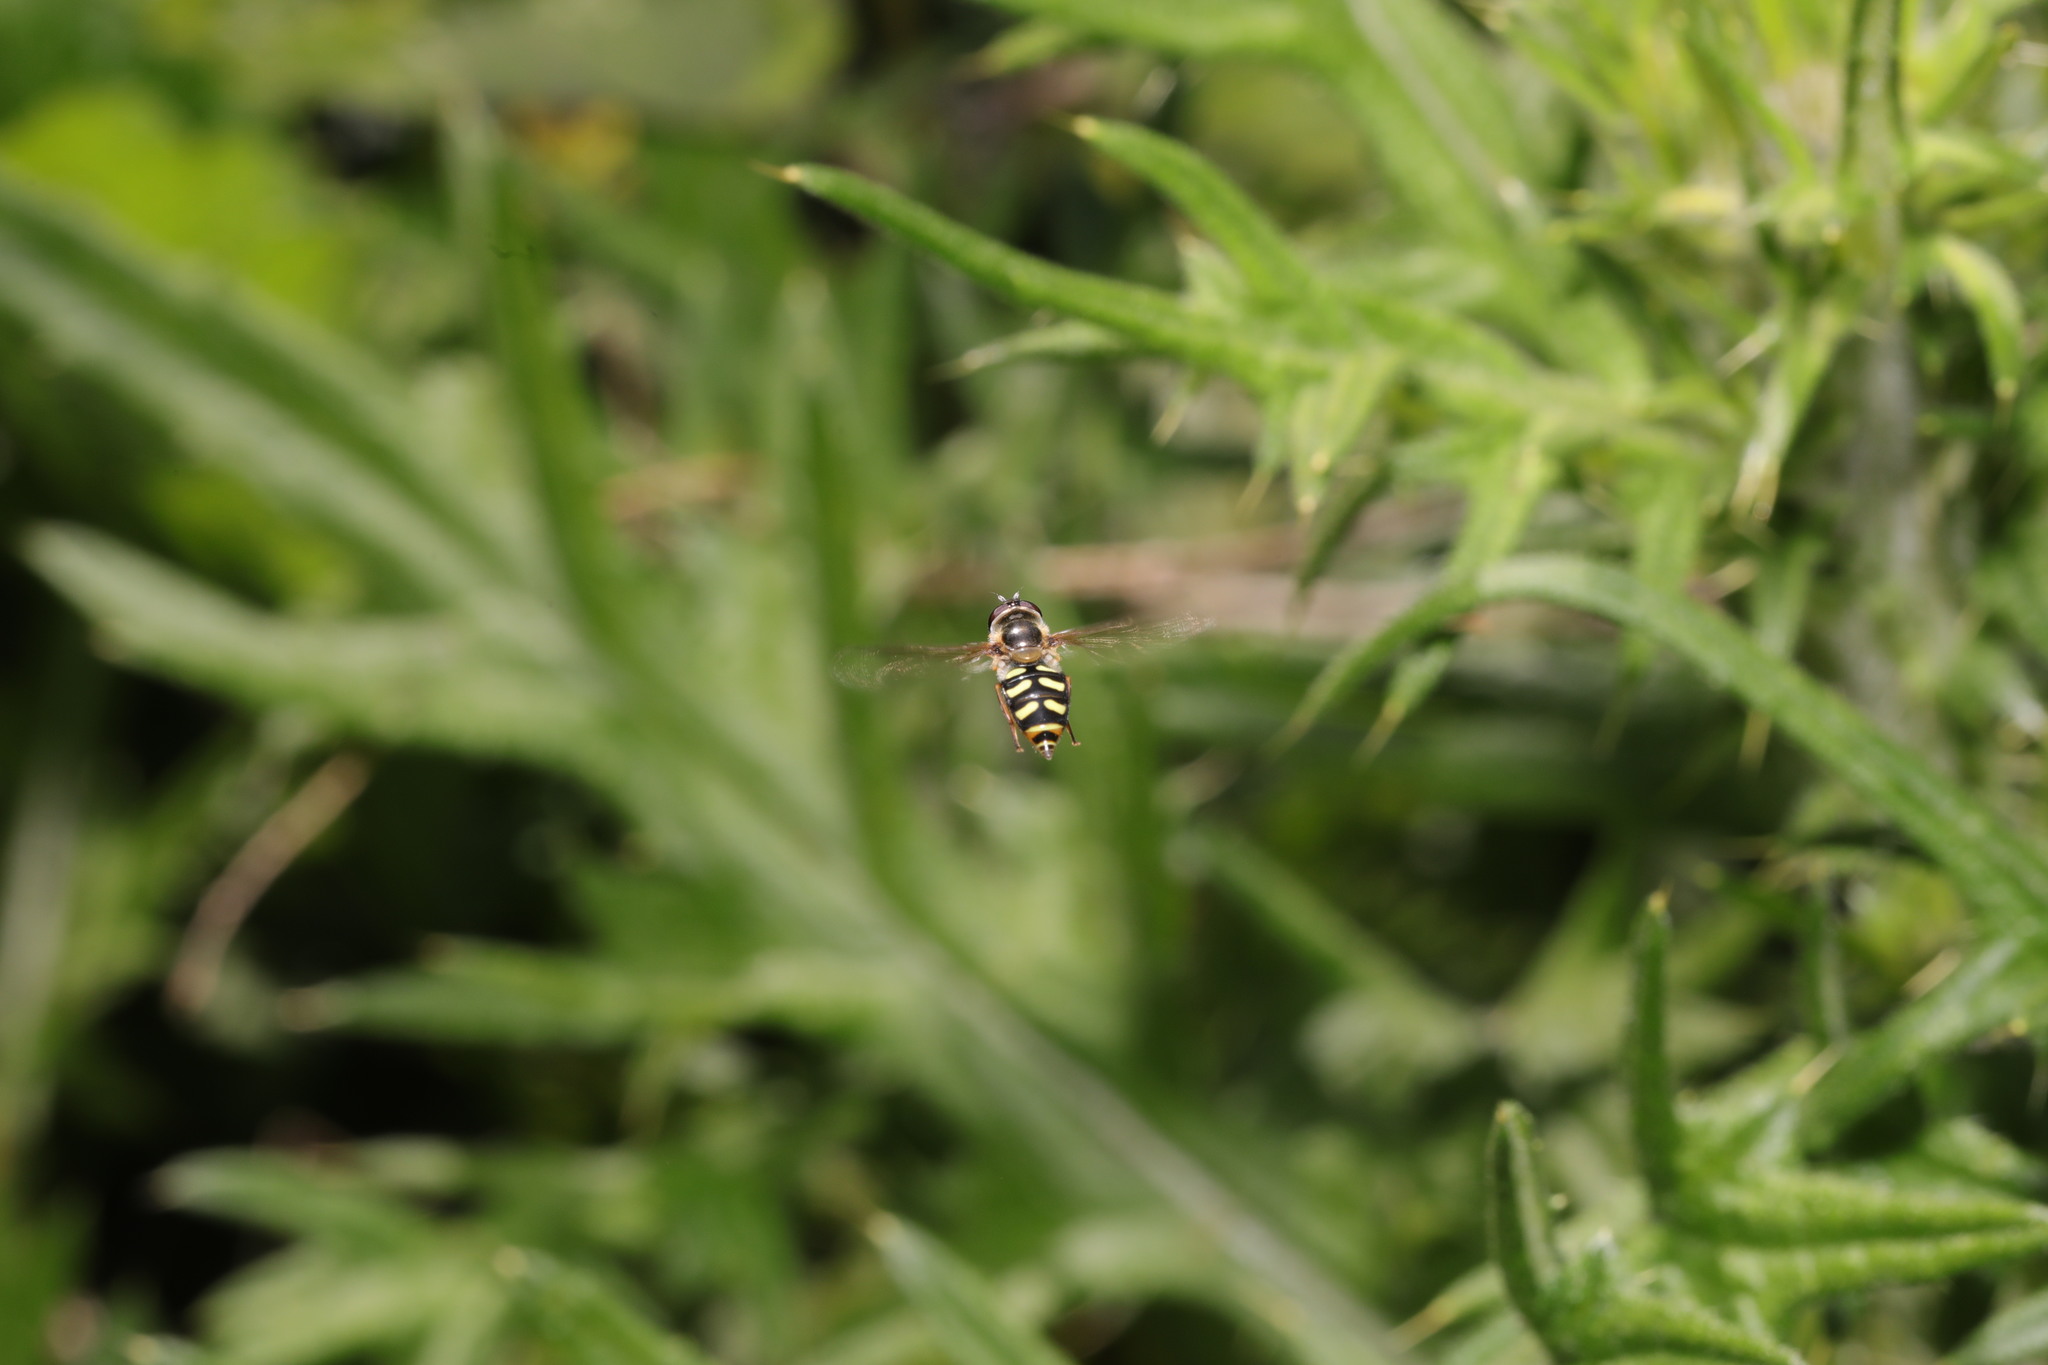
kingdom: Animalia
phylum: Arthropoda
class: Insecta
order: Diptera
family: Syrphidae
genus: Eupeodes
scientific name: Eupeodes
